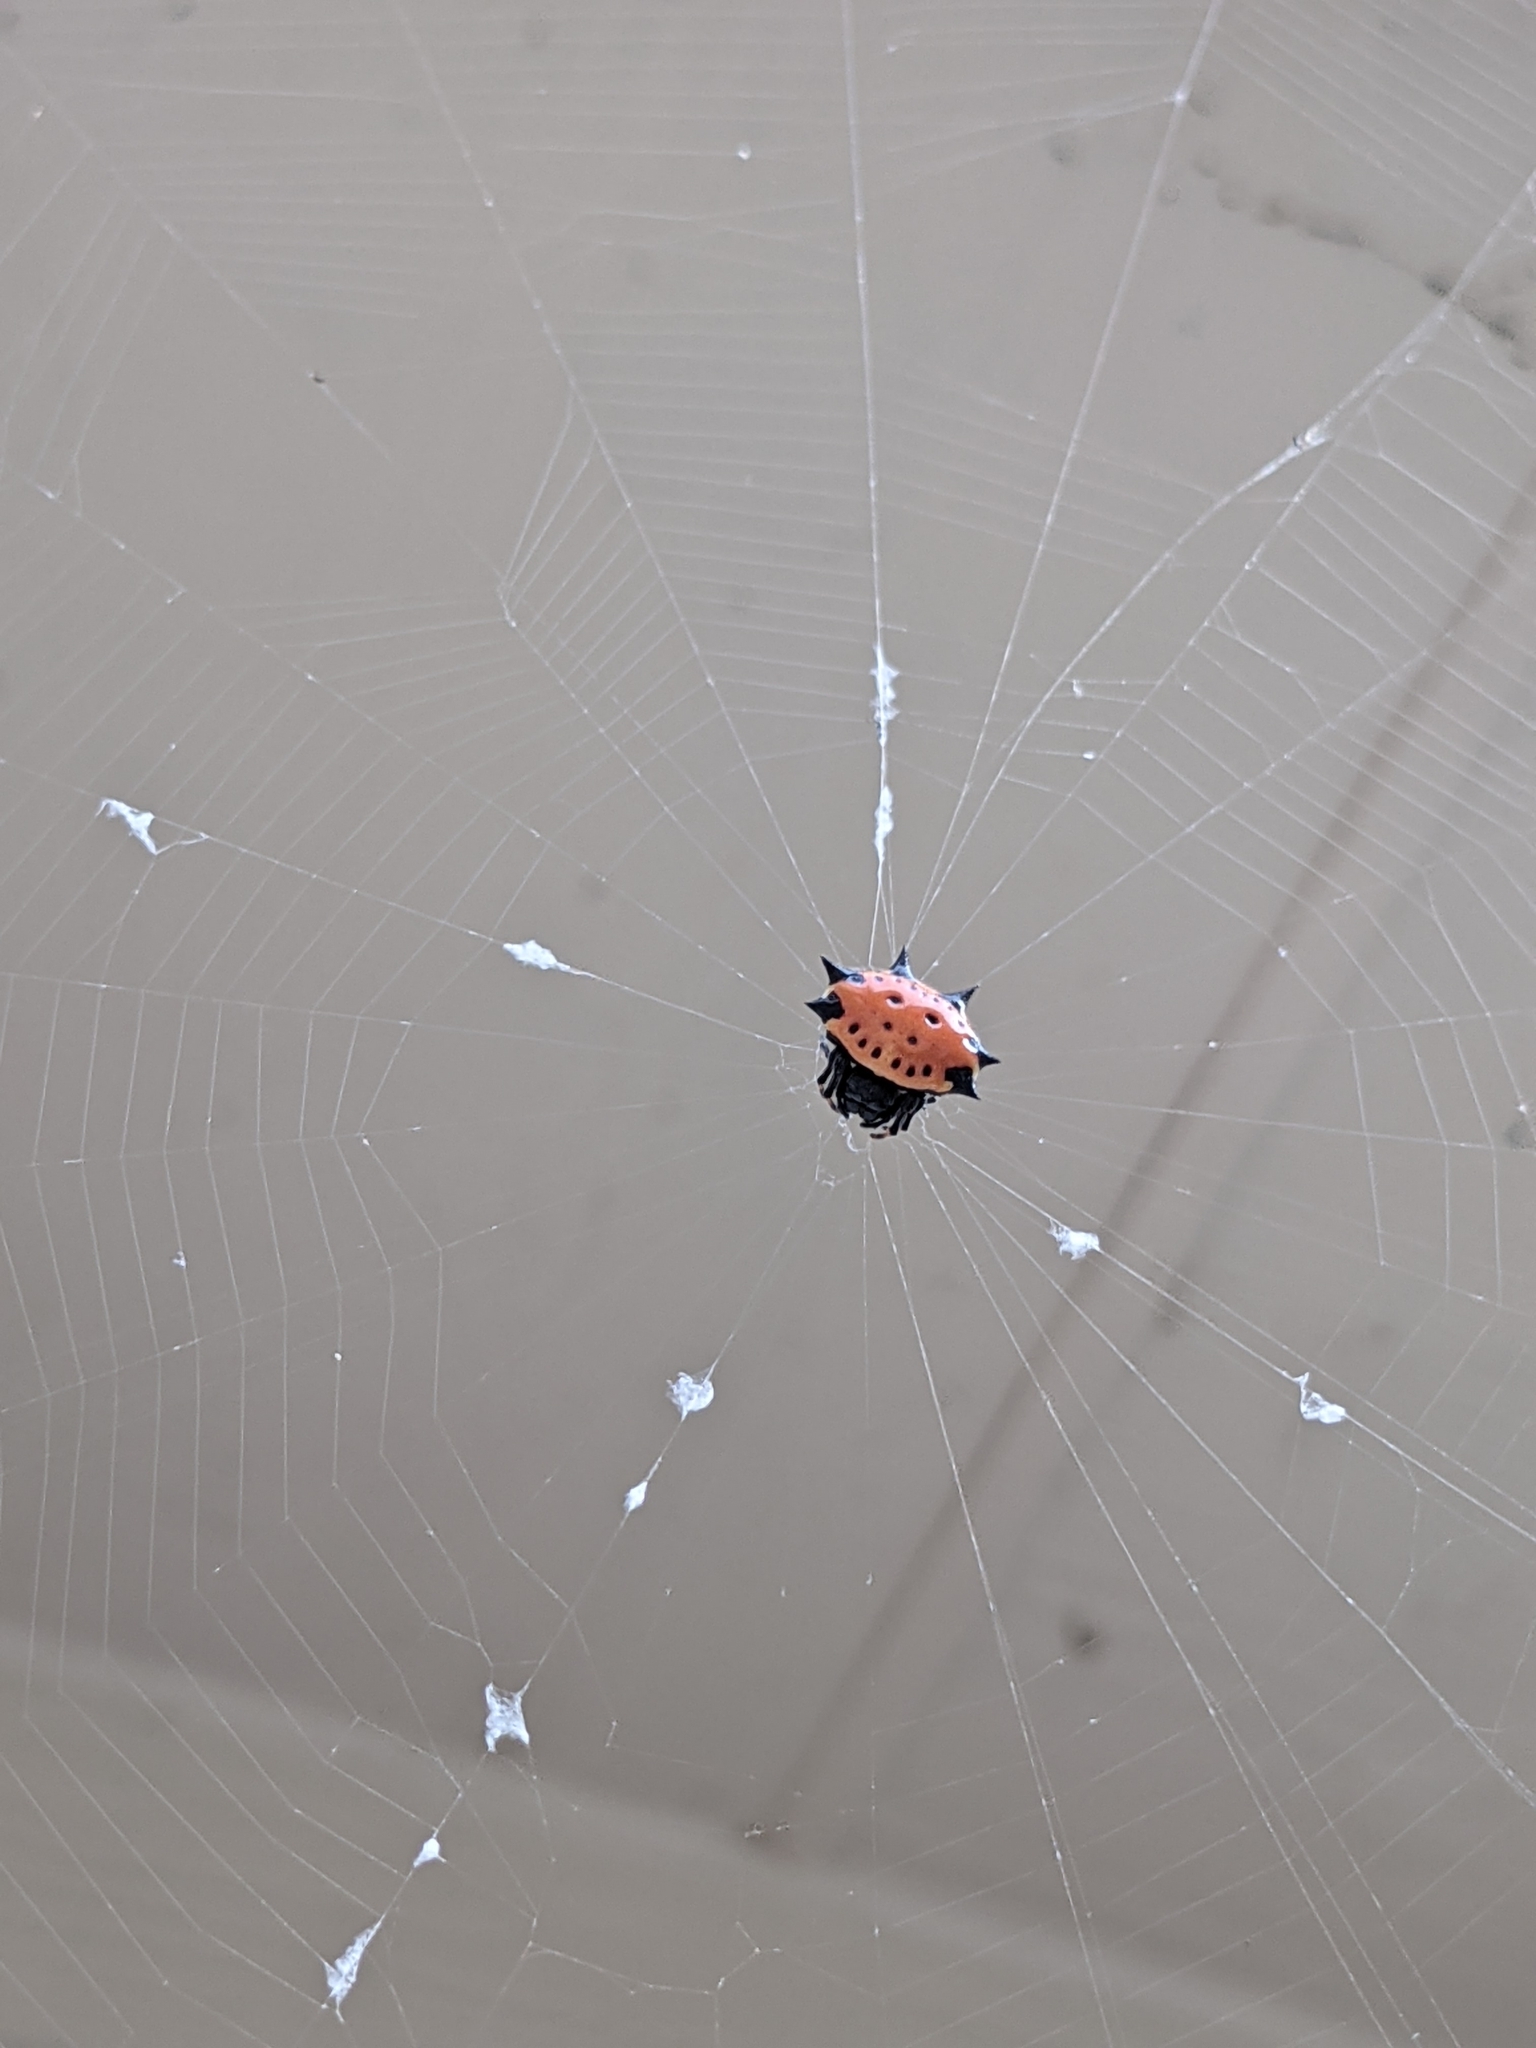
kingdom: Animalia
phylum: Arthropoda
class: Arachnida
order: Araneae
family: Araneidae
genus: Gasteracantha
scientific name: Gasteracantha cancriformis
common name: Orb weavers
